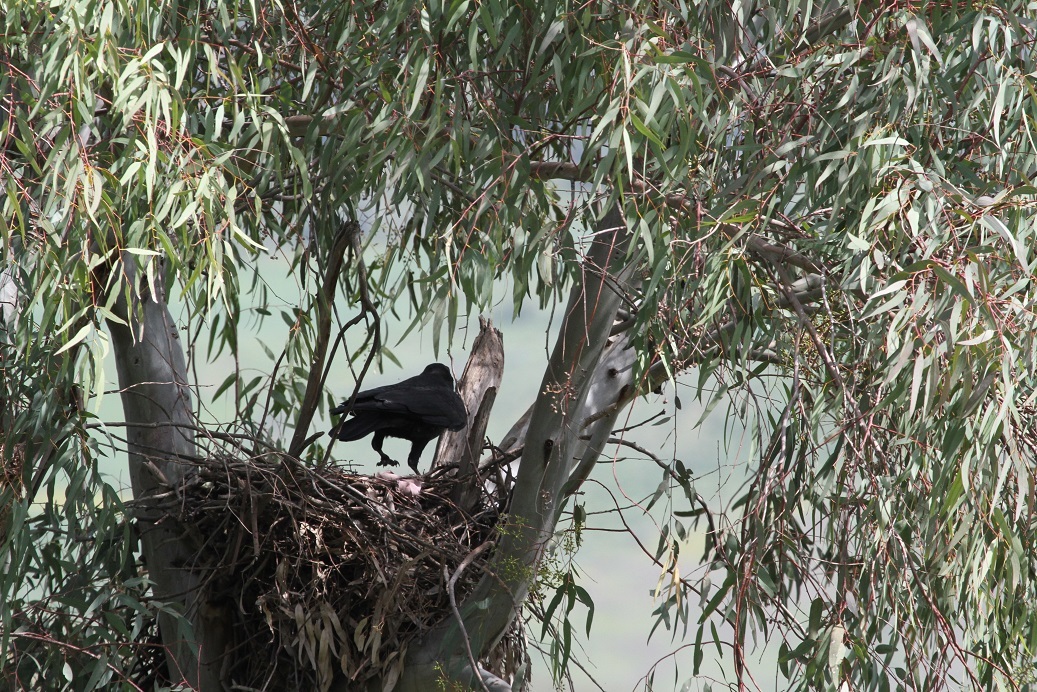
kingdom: Animalia
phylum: Chordata
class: Aves
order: Passeriformes
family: Corvidae
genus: Corvus
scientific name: Corvus corax
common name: Common raven
